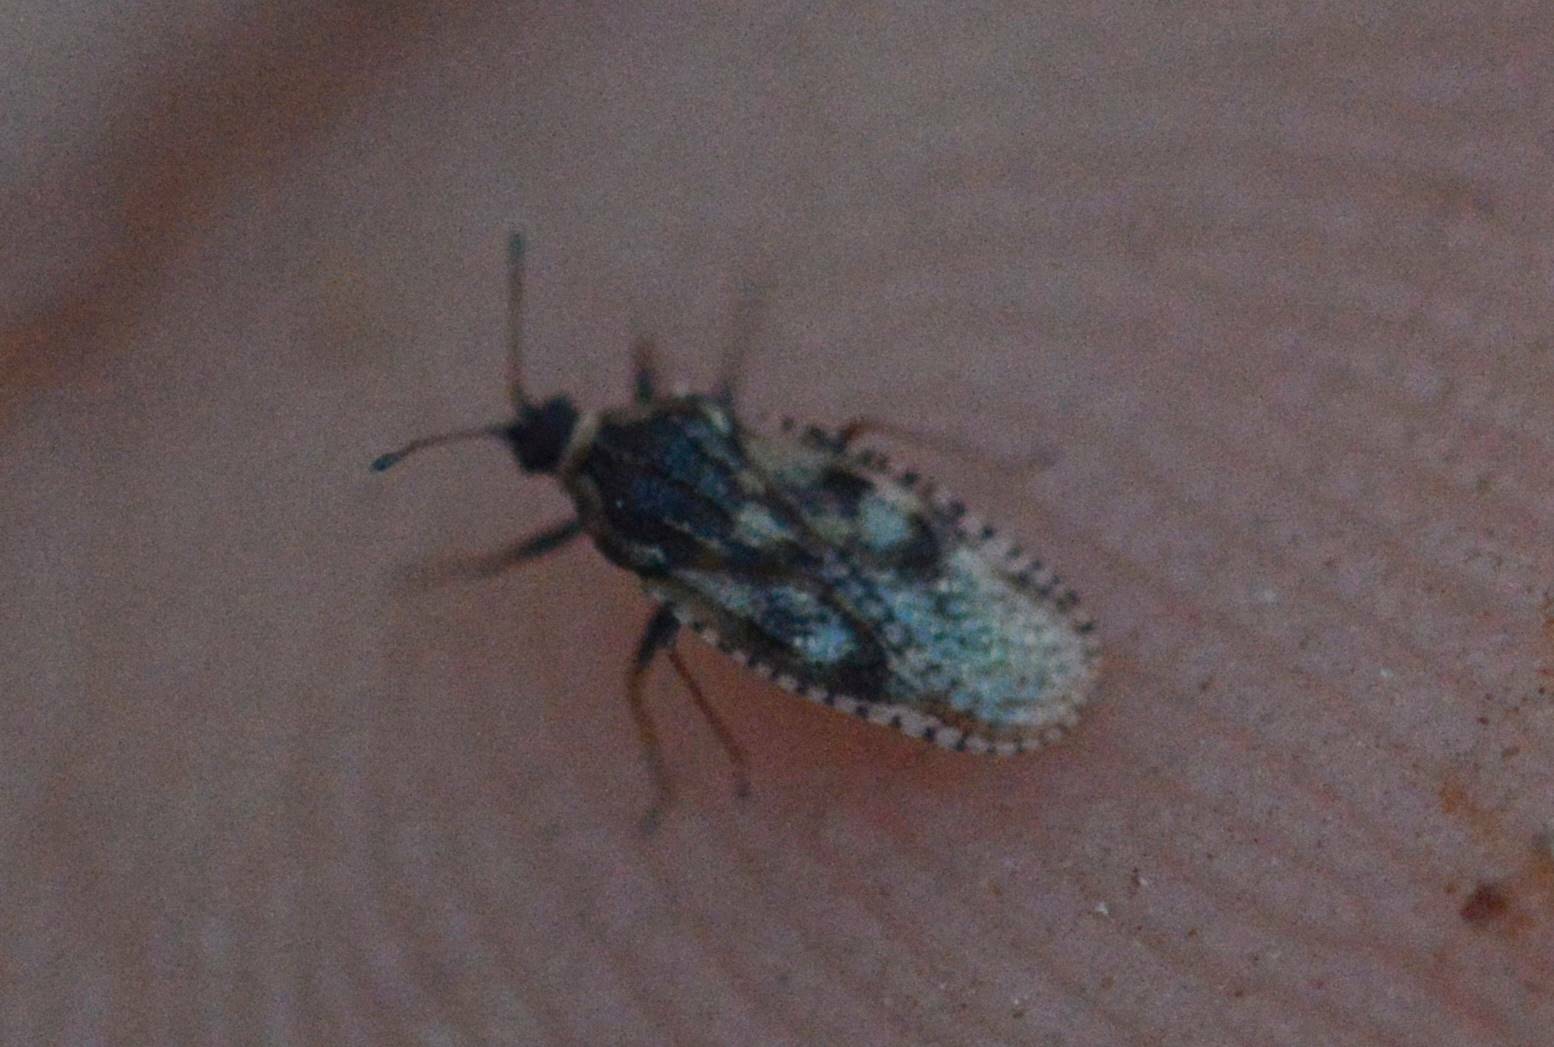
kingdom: Animalia
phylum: Arthropoda
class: Insecta
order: Hemiptera
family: Tingidae
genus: Dictyla
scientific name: Dictyla echii
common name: Lace bug
